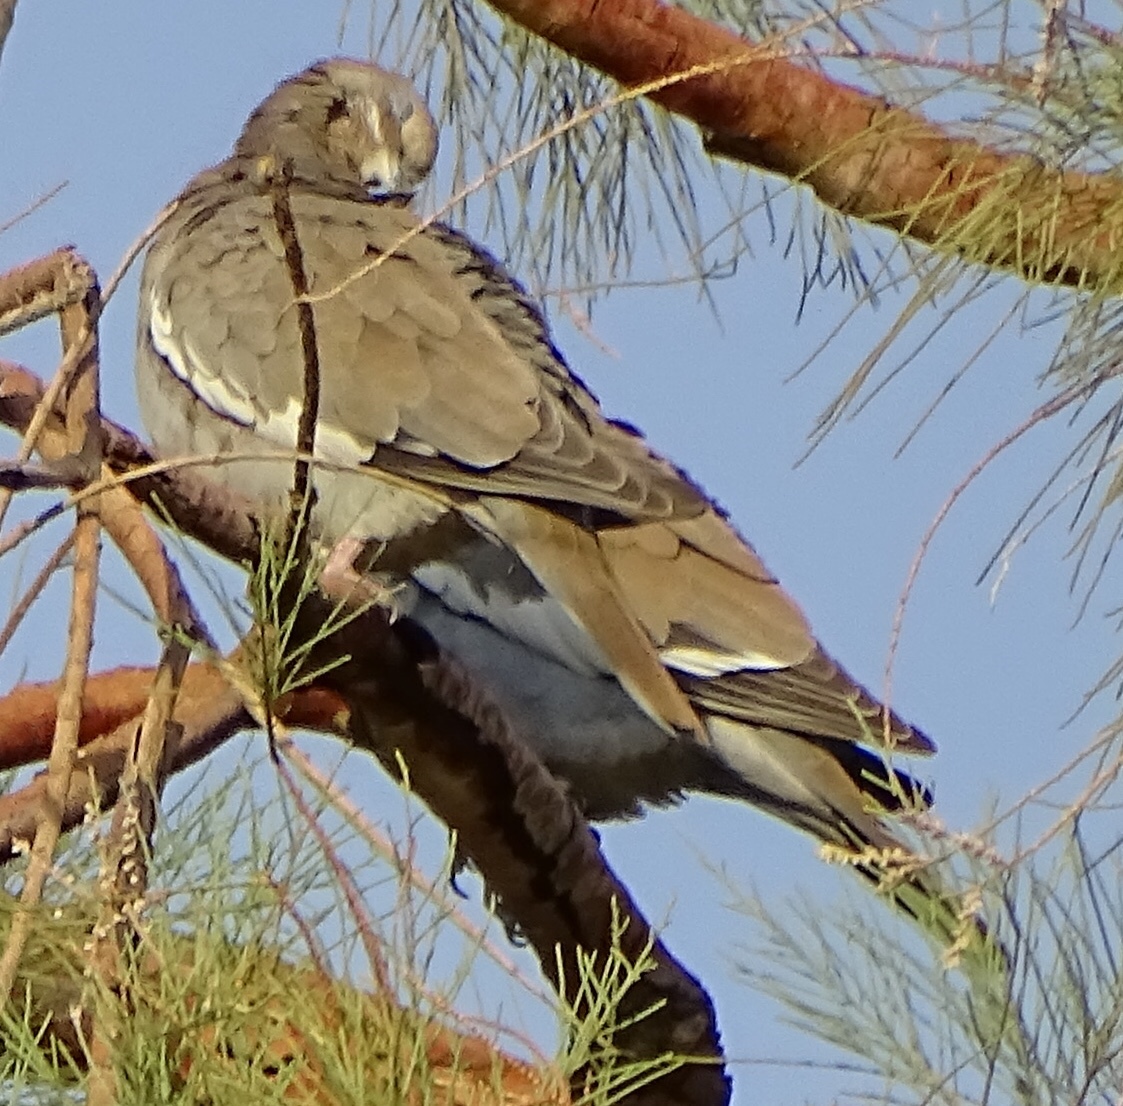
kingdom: Animalia
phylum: Chordata
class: Aves
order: Columbiformes
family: Columbidae
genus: Zenaida
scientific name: Zenaida asiatica
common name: White-winged dove
